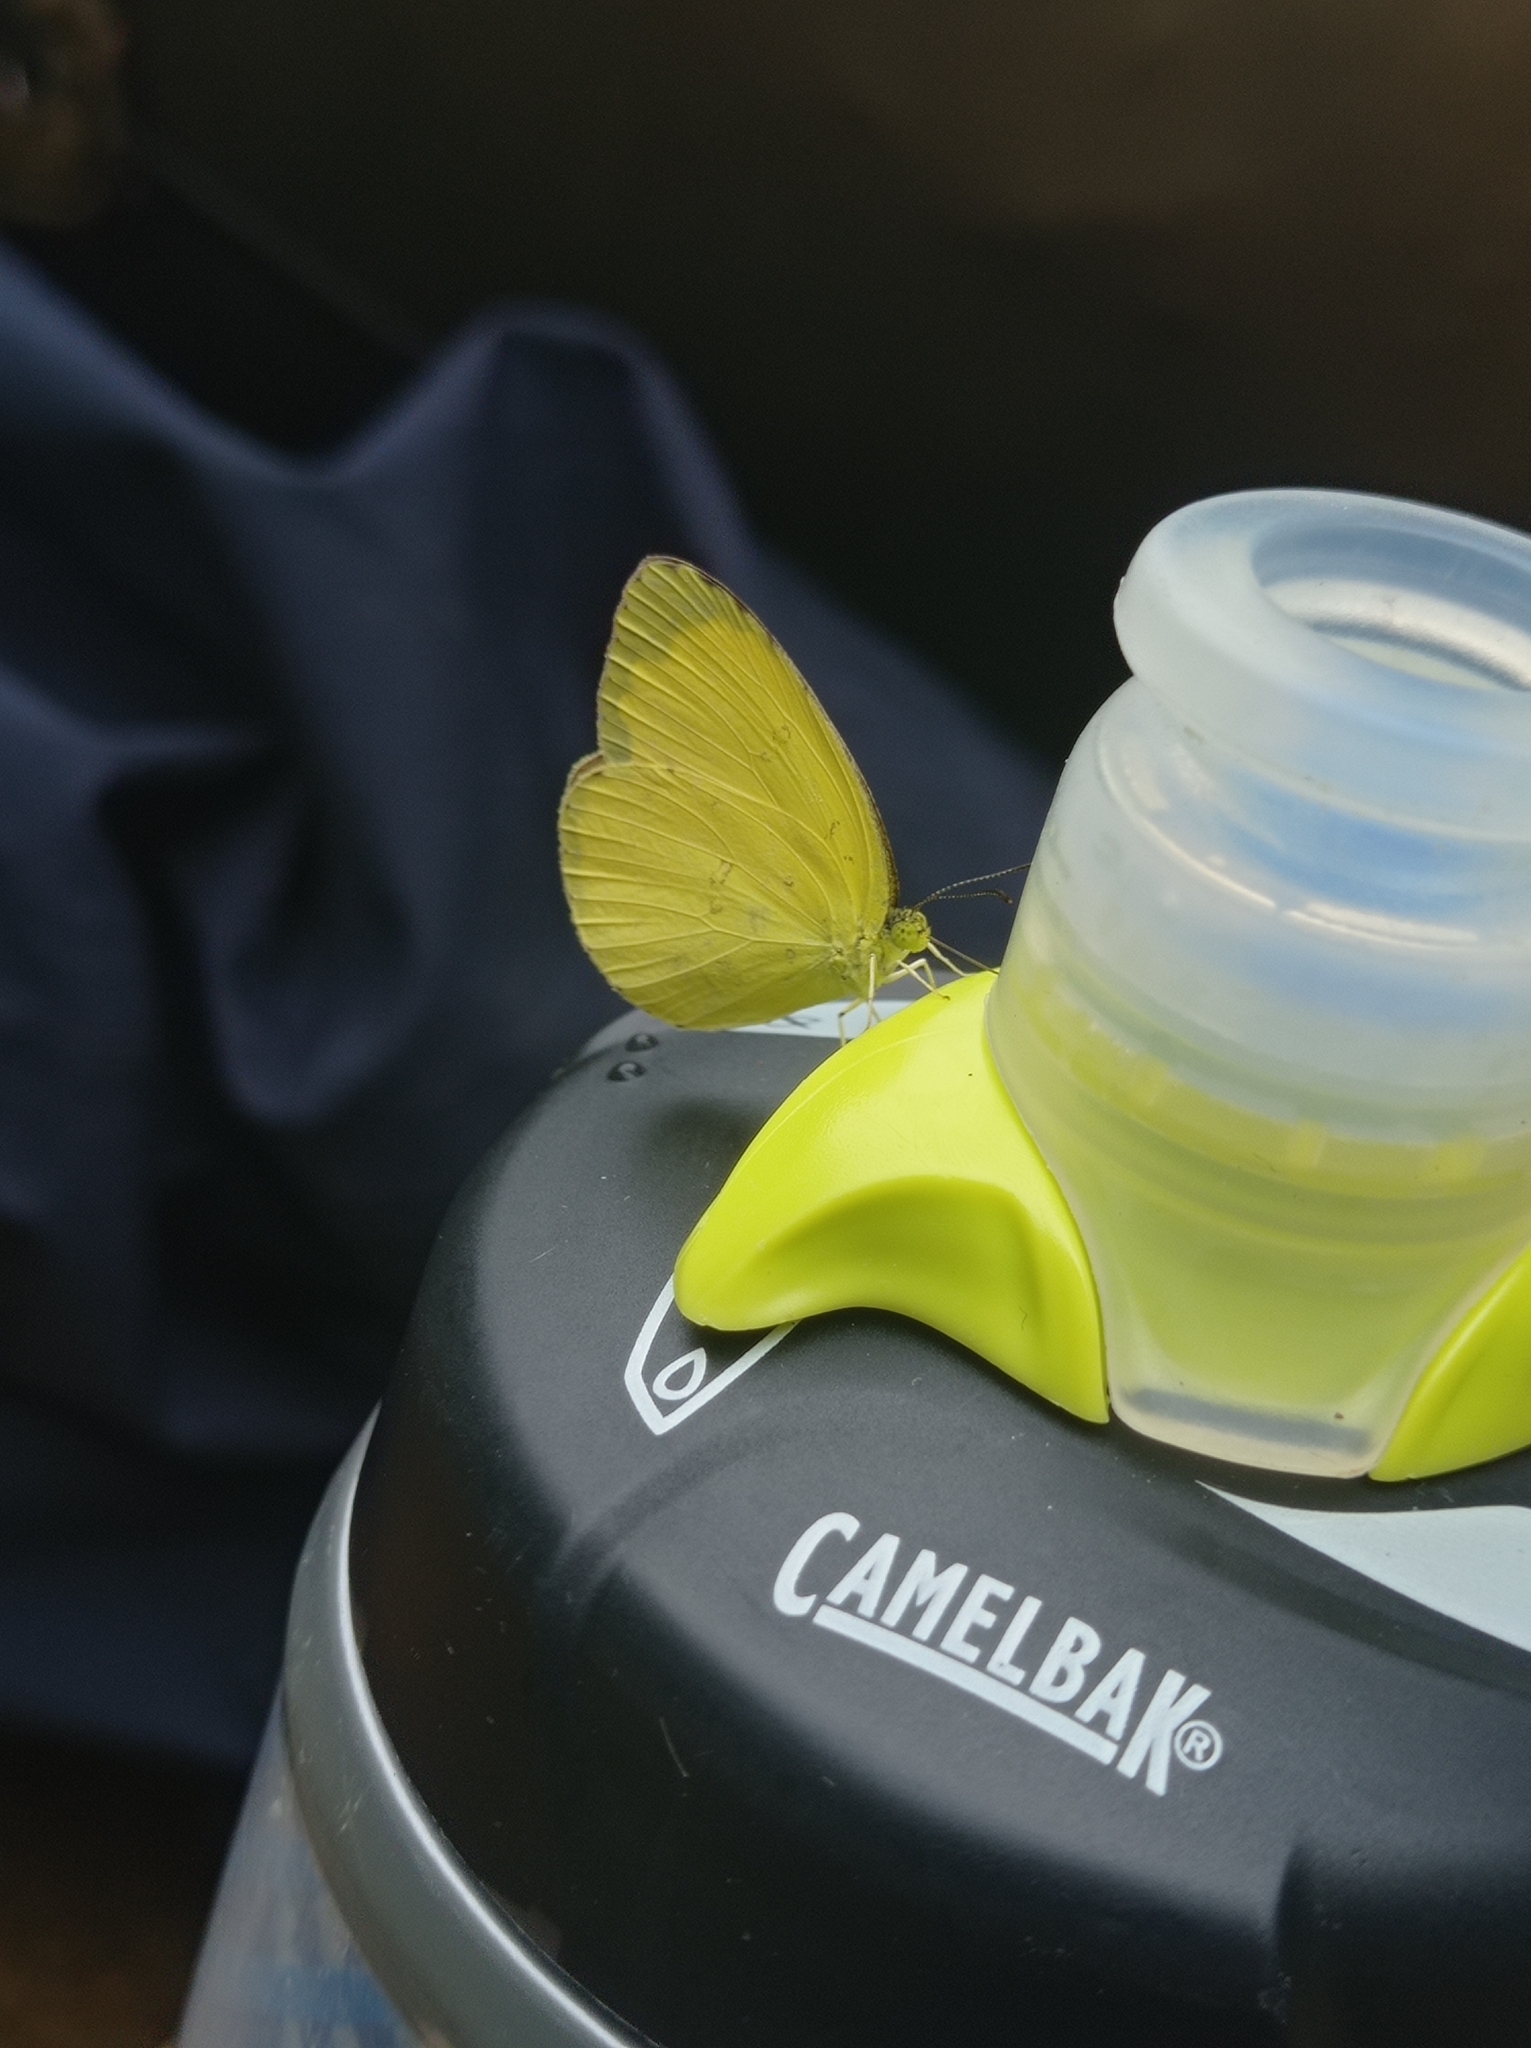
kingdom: Animalia
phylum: Arthropoda
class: Insecta
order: Lepidoptera
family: Pieridae
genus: Eurema
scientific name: Eurema hecabe
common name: Pale grass yellow
